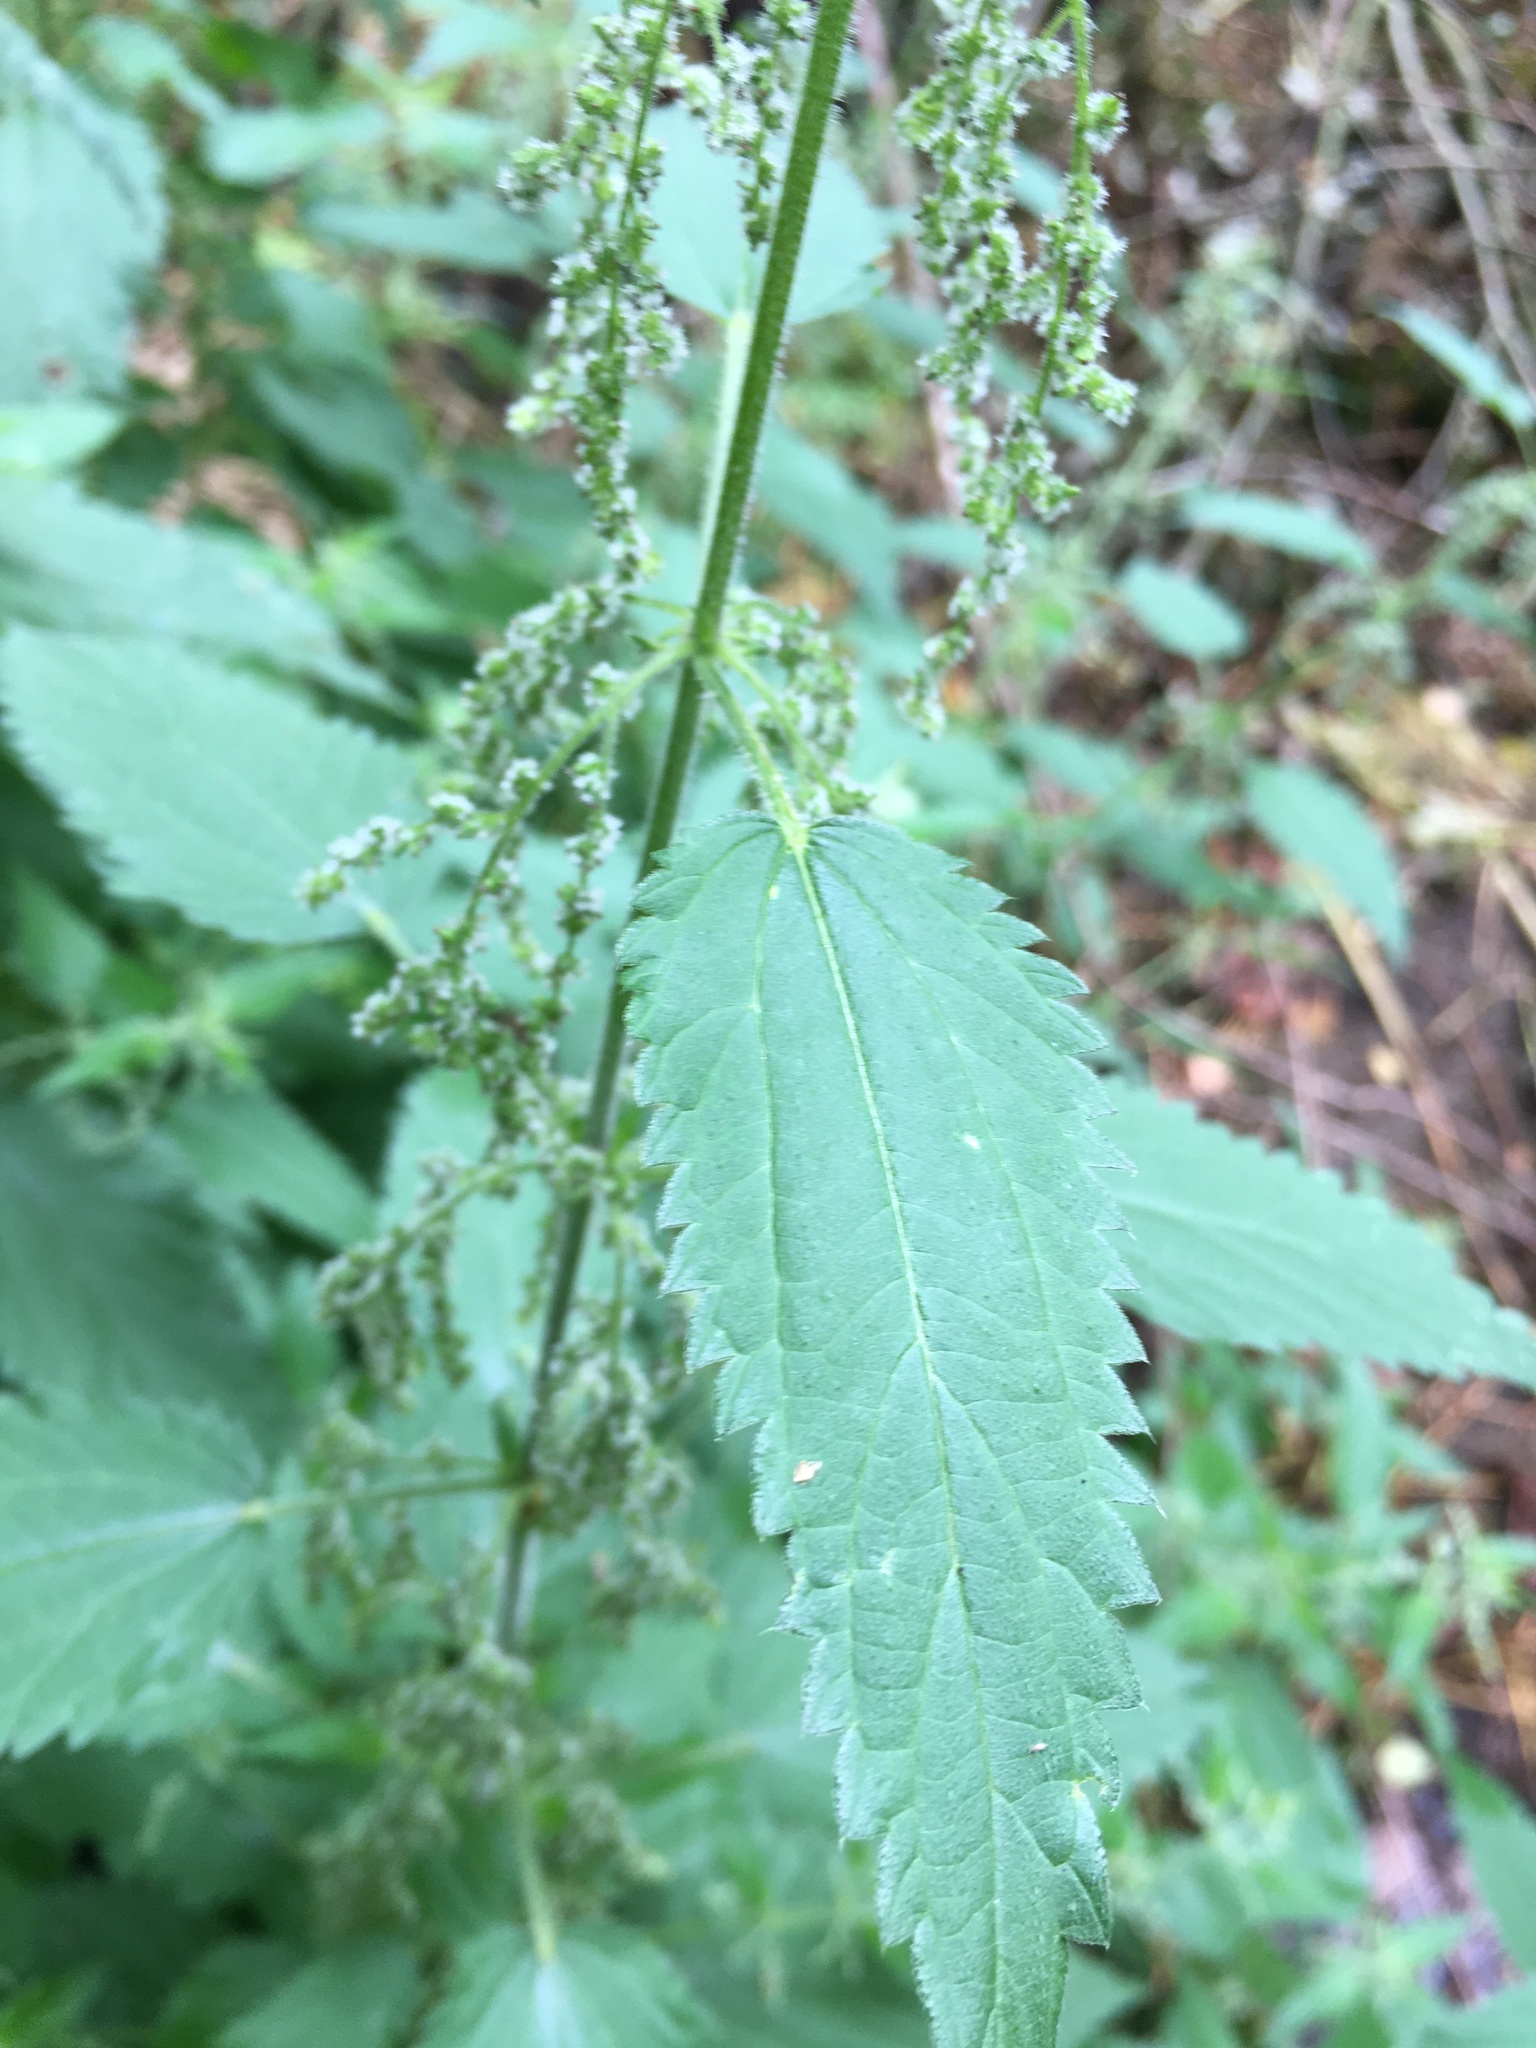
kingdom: Plantae
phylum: Tracheophyta
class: Magnoliopsida
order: Rosales
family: Urticaceae
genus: Urtica
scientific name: Urtica dioica
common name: Common nettle
